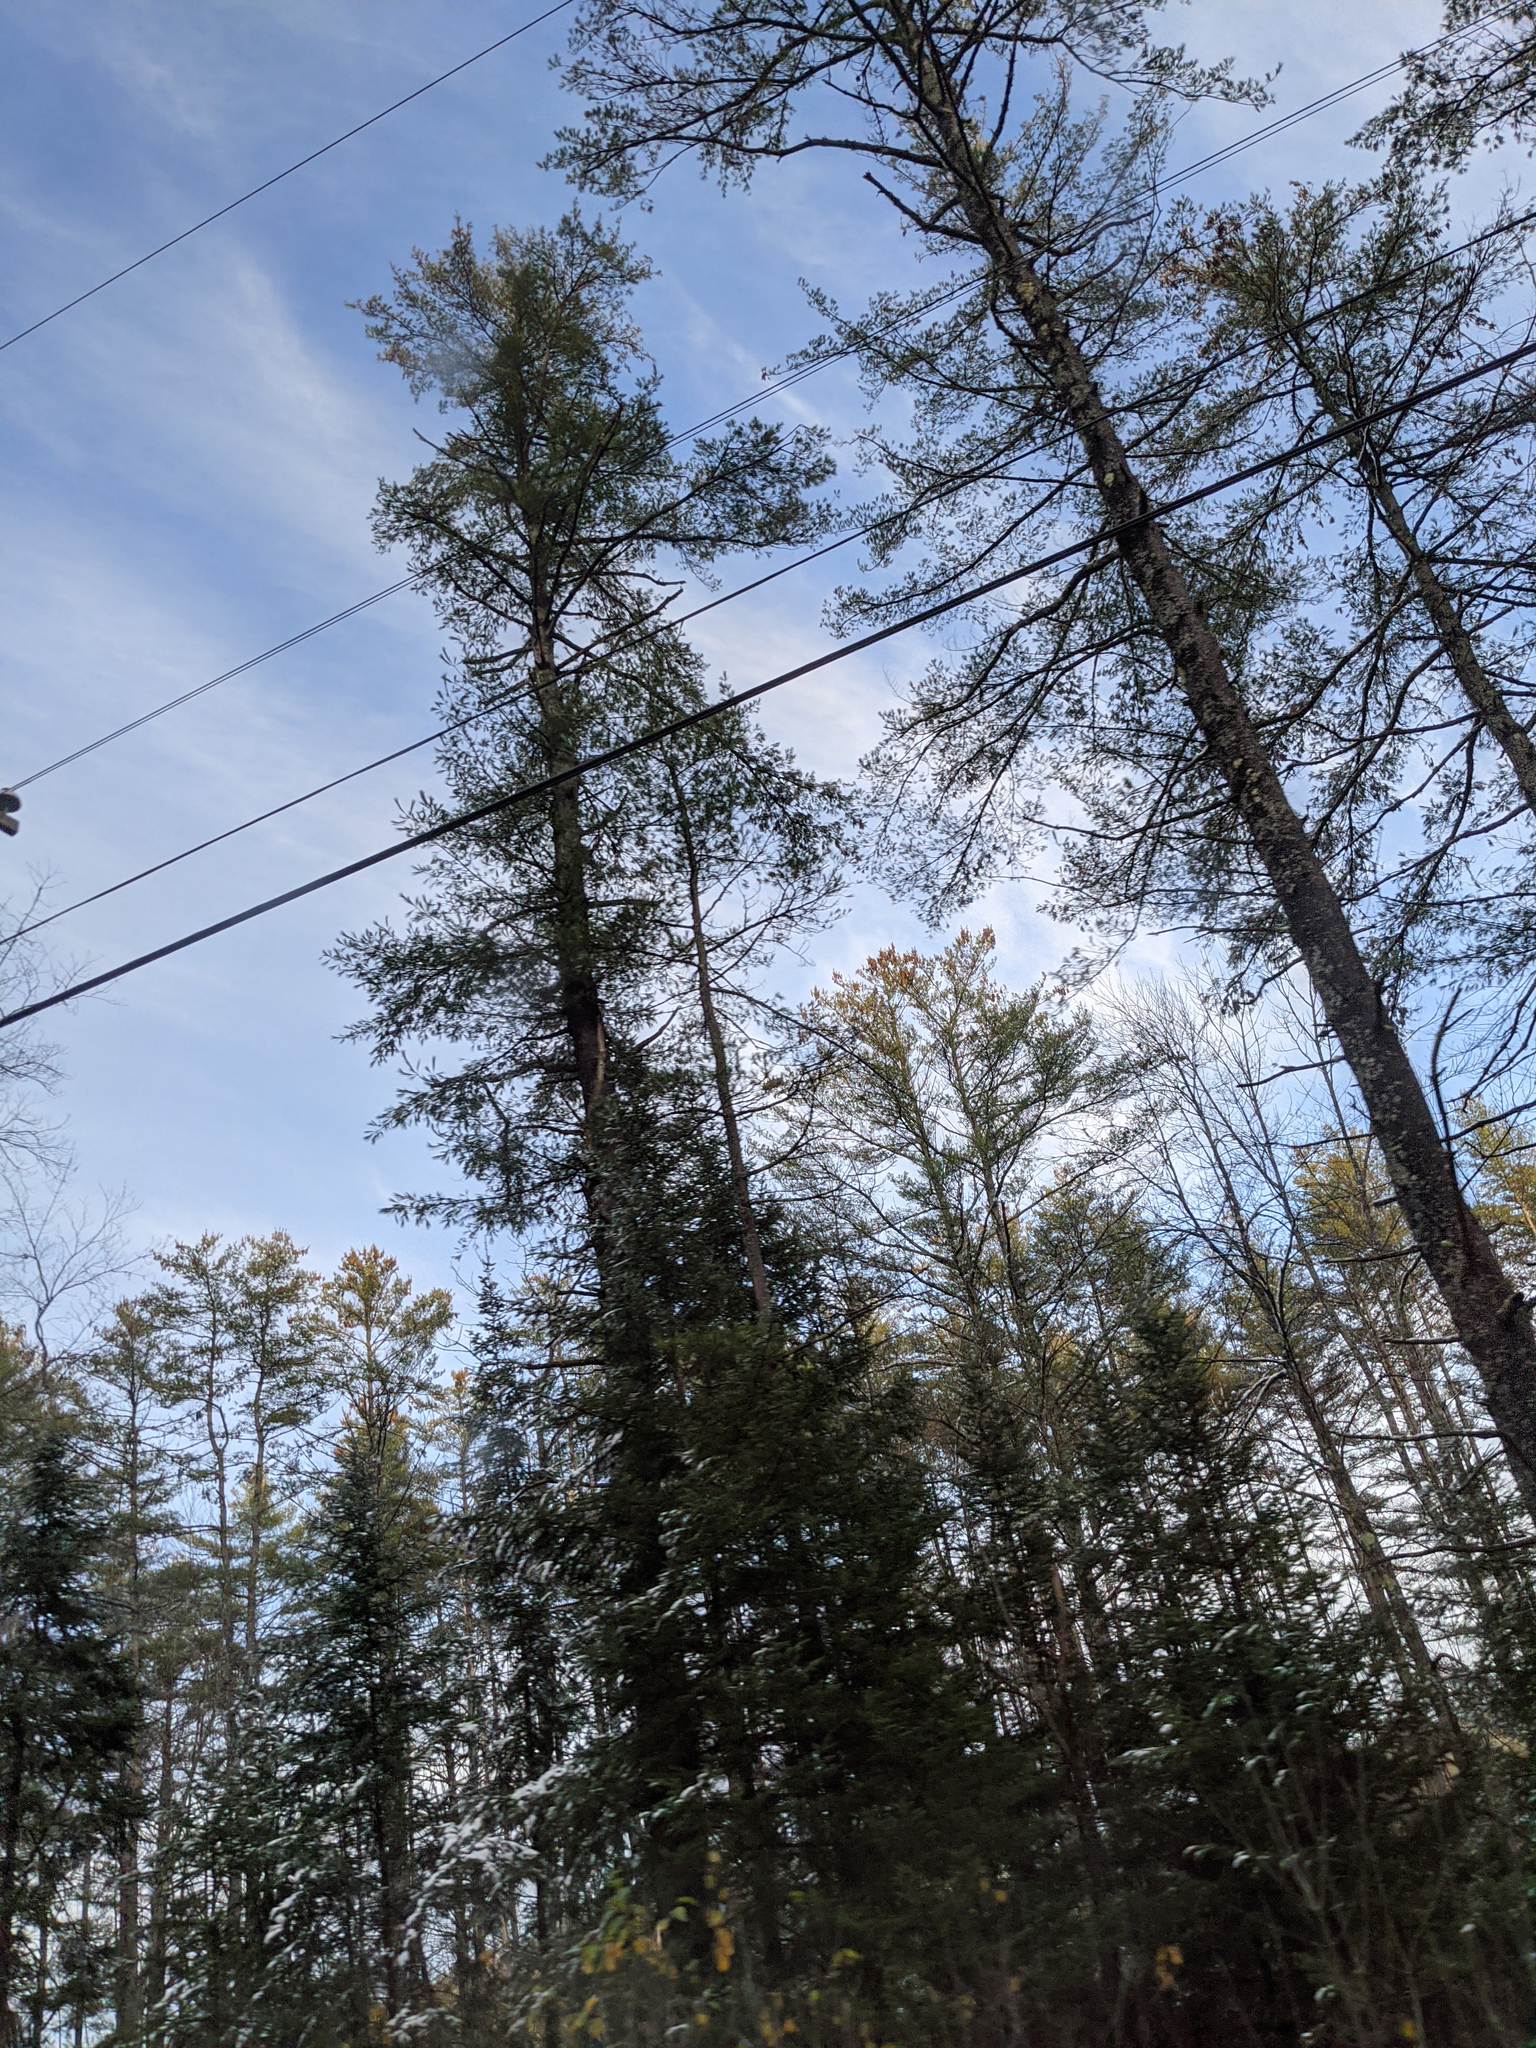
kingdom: Plantae
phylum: Tracheophyta
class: Pinopsida
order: Pinales
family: Pinaceae
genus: Pinus
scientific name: Pinus strobus
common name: Weymouth pine
